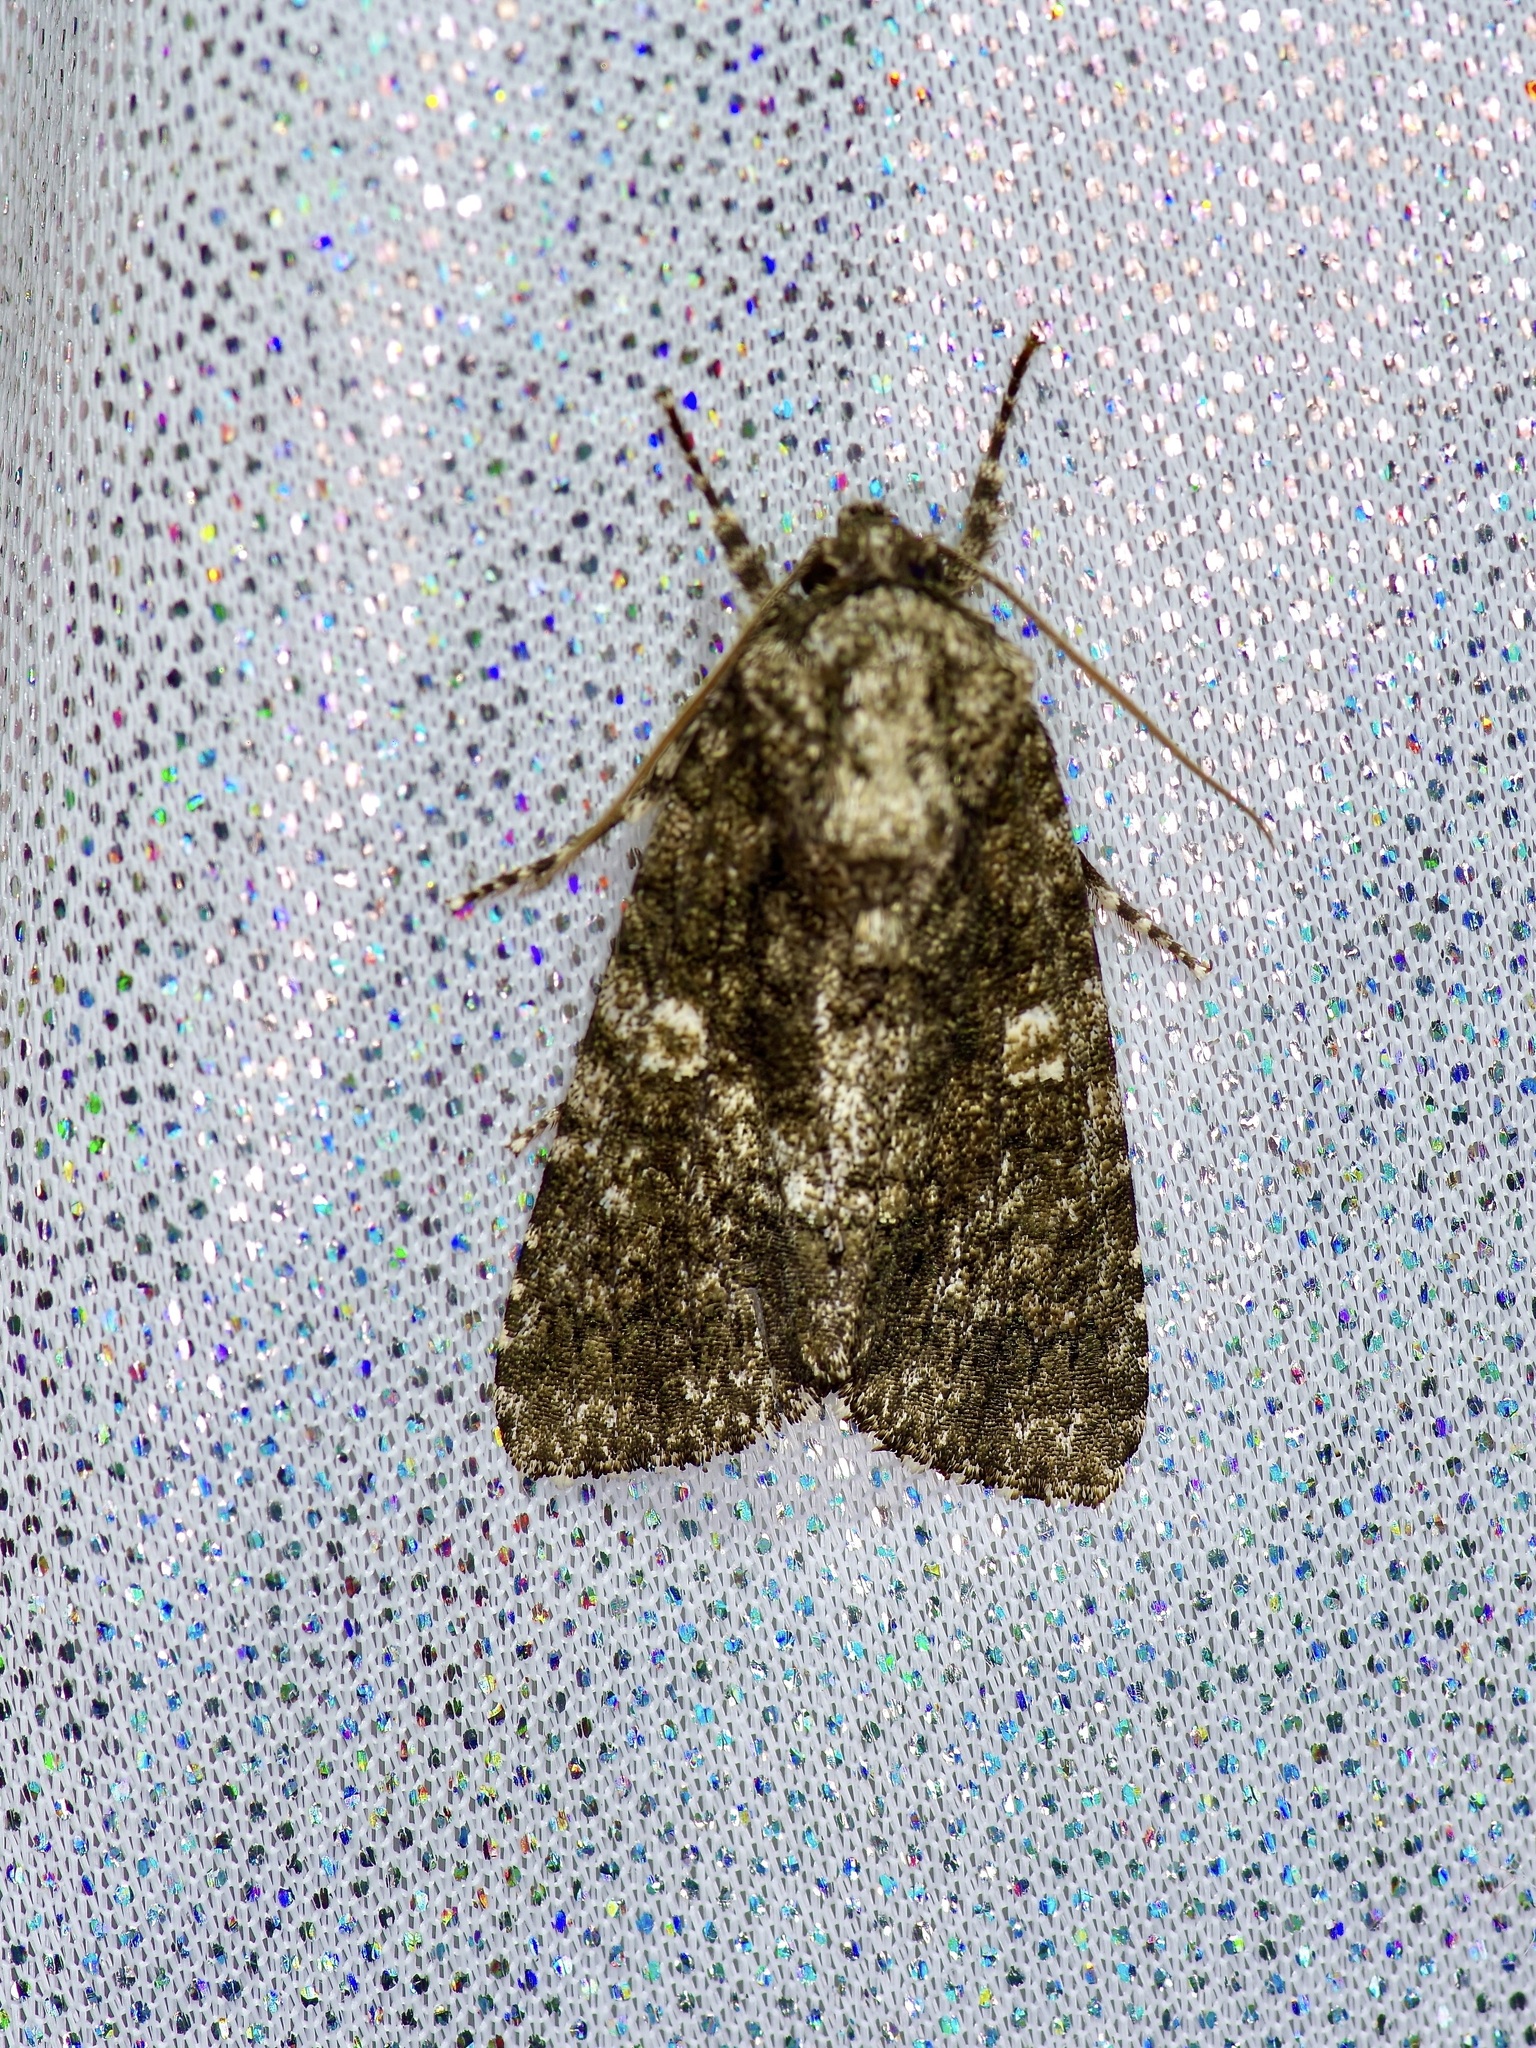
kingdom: Animalia
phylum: Arthropoda
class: Insecta
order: Lepidoptera
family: Noctuidae
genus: Acronicta
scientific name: Acronicta afflicta
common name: Afflicted dagger moth
